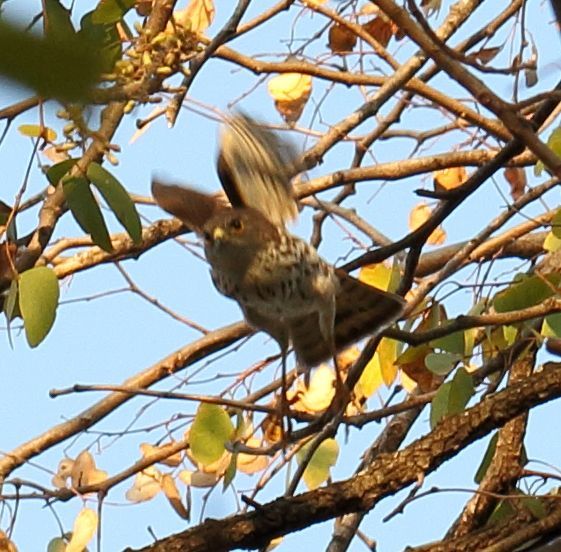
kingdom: Animalia
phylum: Chordata
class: Aves
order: Accipitriformes
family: Accipitridae
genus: Accipiter
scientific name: Accipiter minullus
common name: Little sparrowhawk
